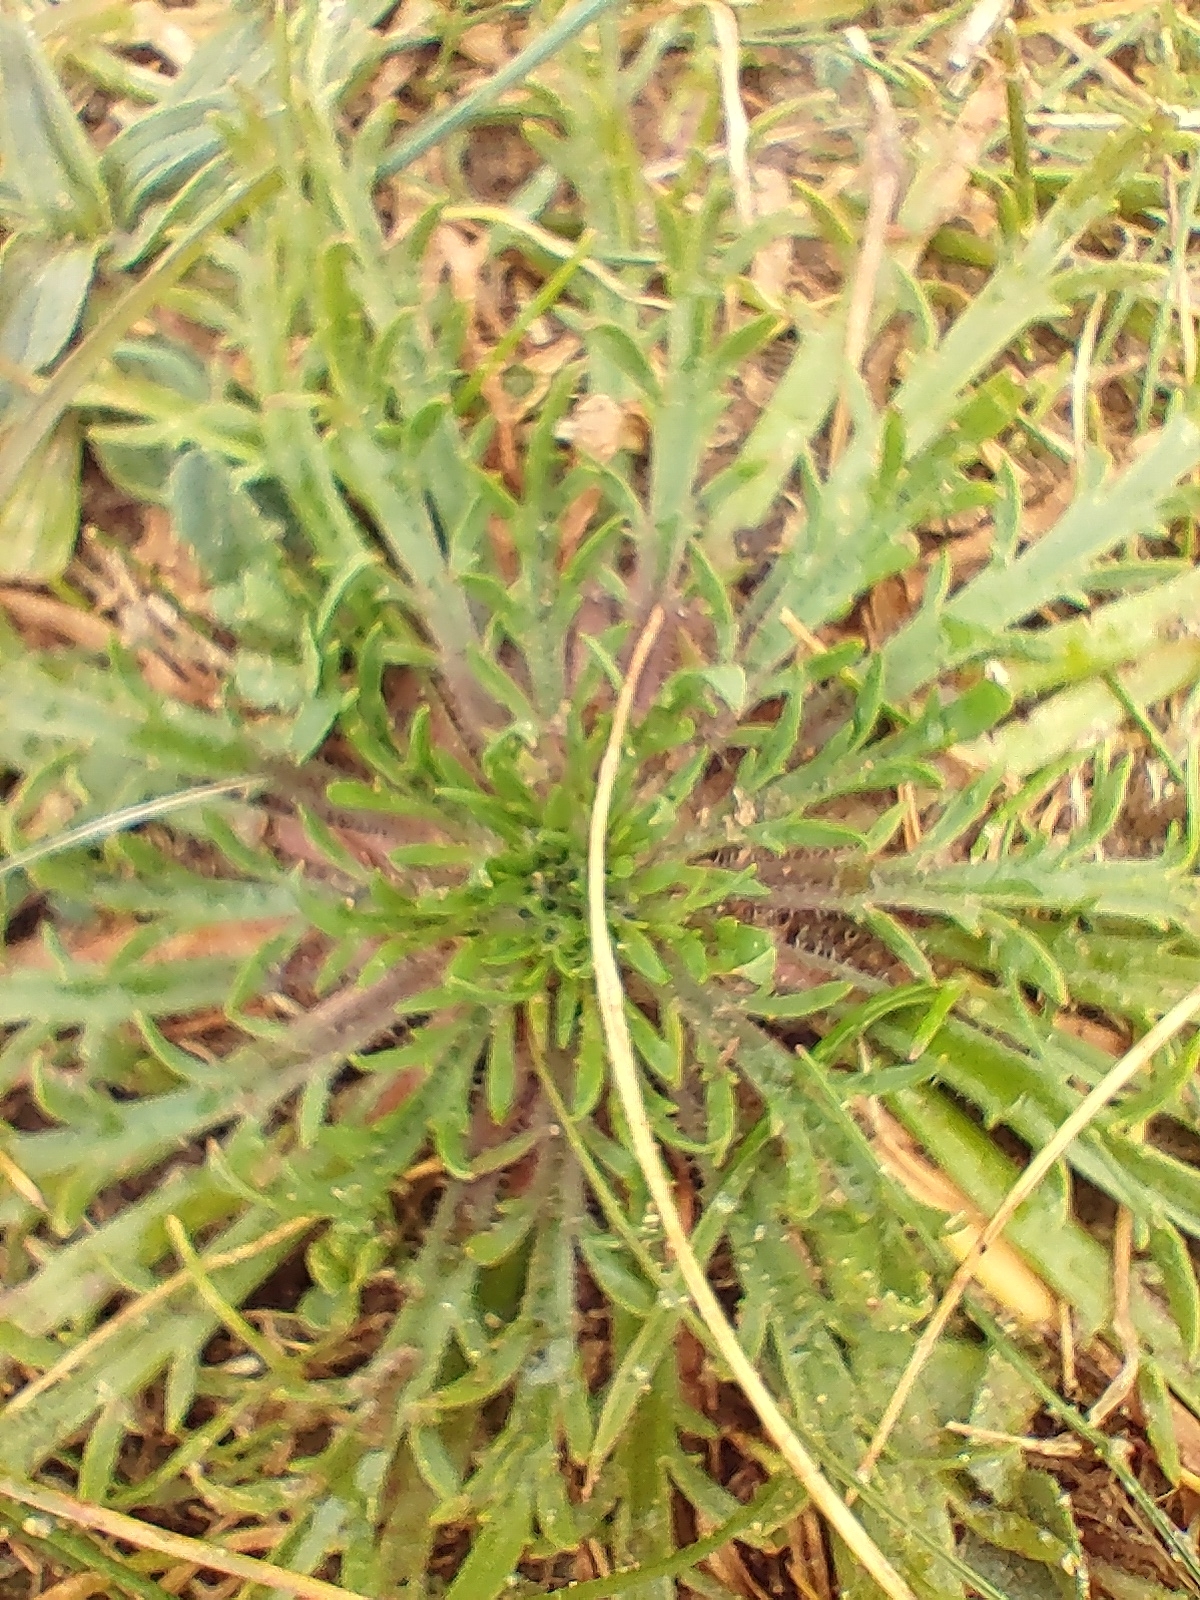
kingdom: Plantae
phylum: Tracheophyta
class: Magnoliopsida
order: Lamiales
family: Plantaginaceae
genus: Plantago
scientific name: Plantago coronopus
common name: Buck's-horn plantain
